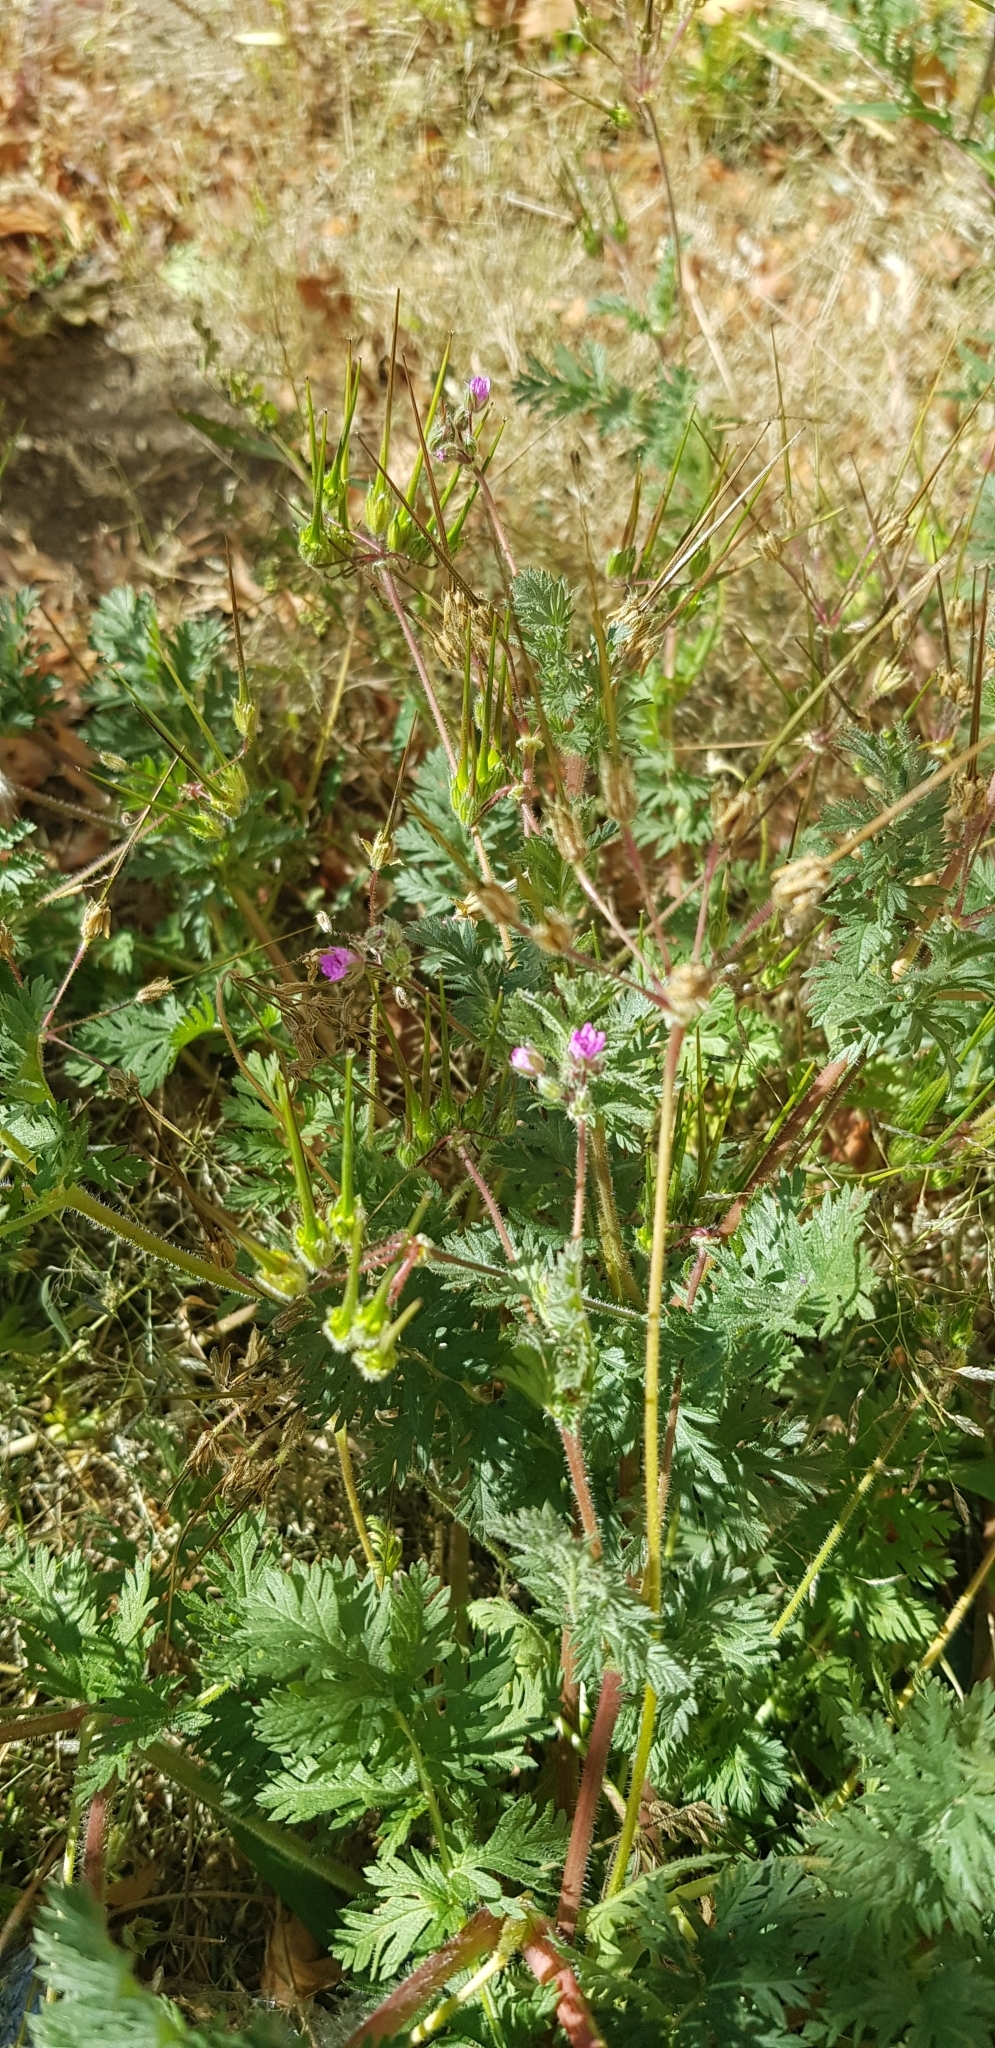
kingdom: Plantae
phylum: Tracheophyta
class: Magnoliopsida
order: Geraniales
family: Geraniaceae
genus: Erodium
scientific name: Erodium cicutarium
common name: Common stork's-bill
